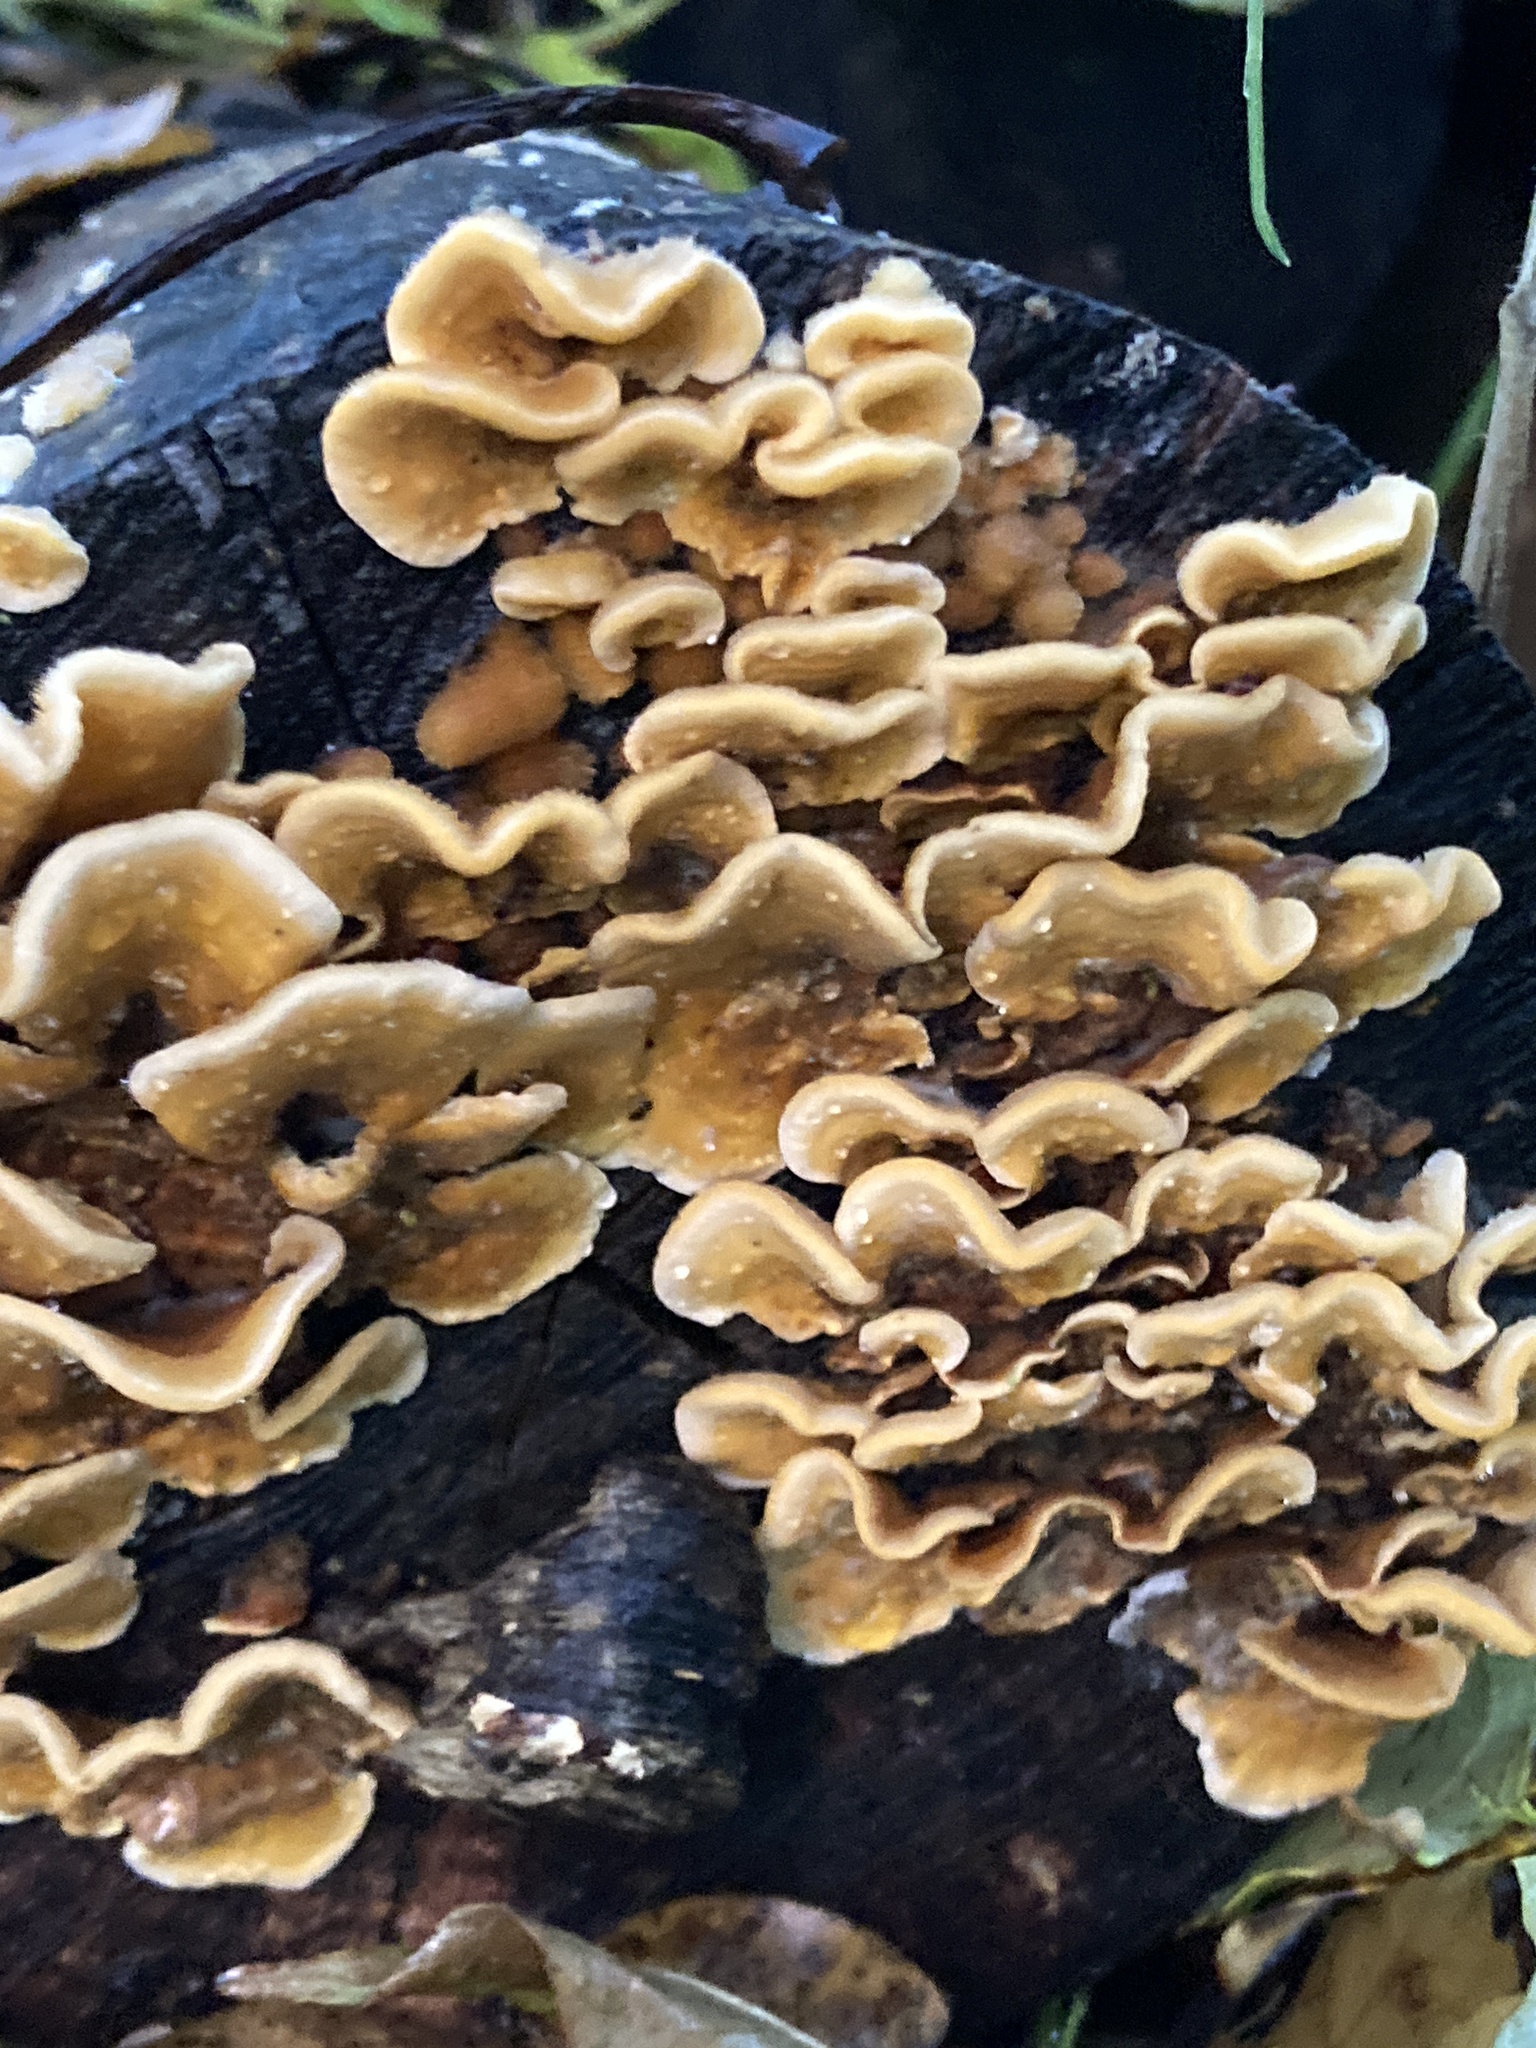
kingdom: Fungi
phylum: Basidiomycota
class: Agaricomycetes
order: Russulales
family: Stereaceae
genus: Stereum
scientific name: Stereum hirsutum
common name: Hairy curtain crust
